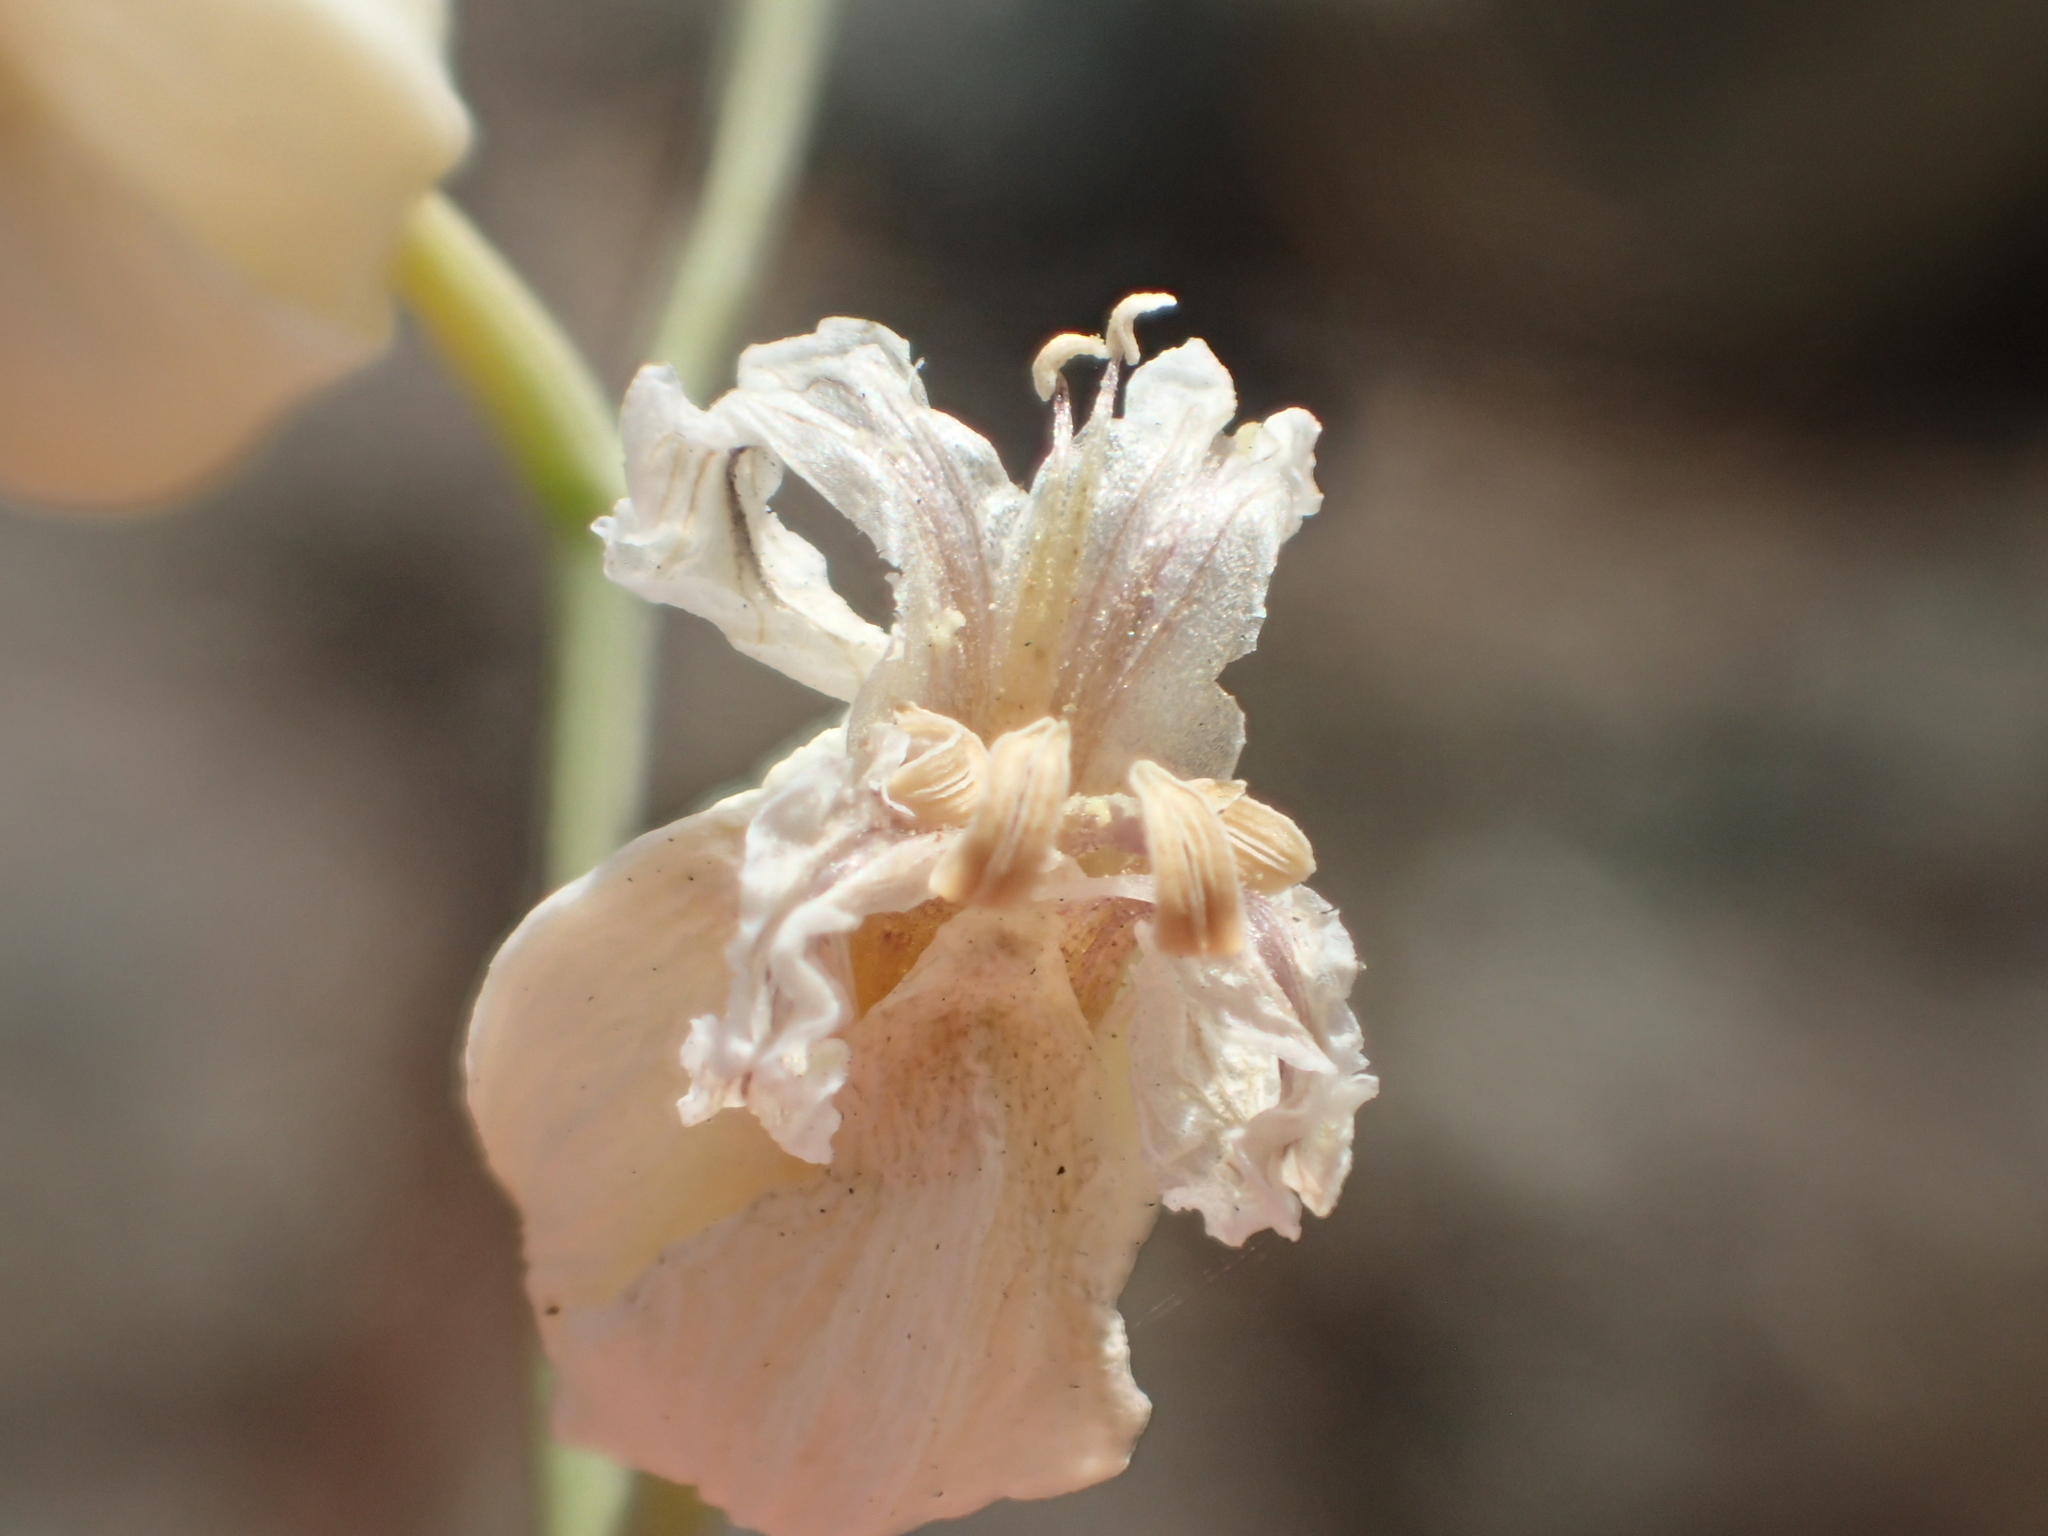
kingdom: Plantae
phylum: Tracheophyta
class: Magnoliopsida
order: Brassicales
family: Brassicaceae
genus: Streptanthus
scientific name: Streptanthus glandulosus
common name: Jewel-flower
